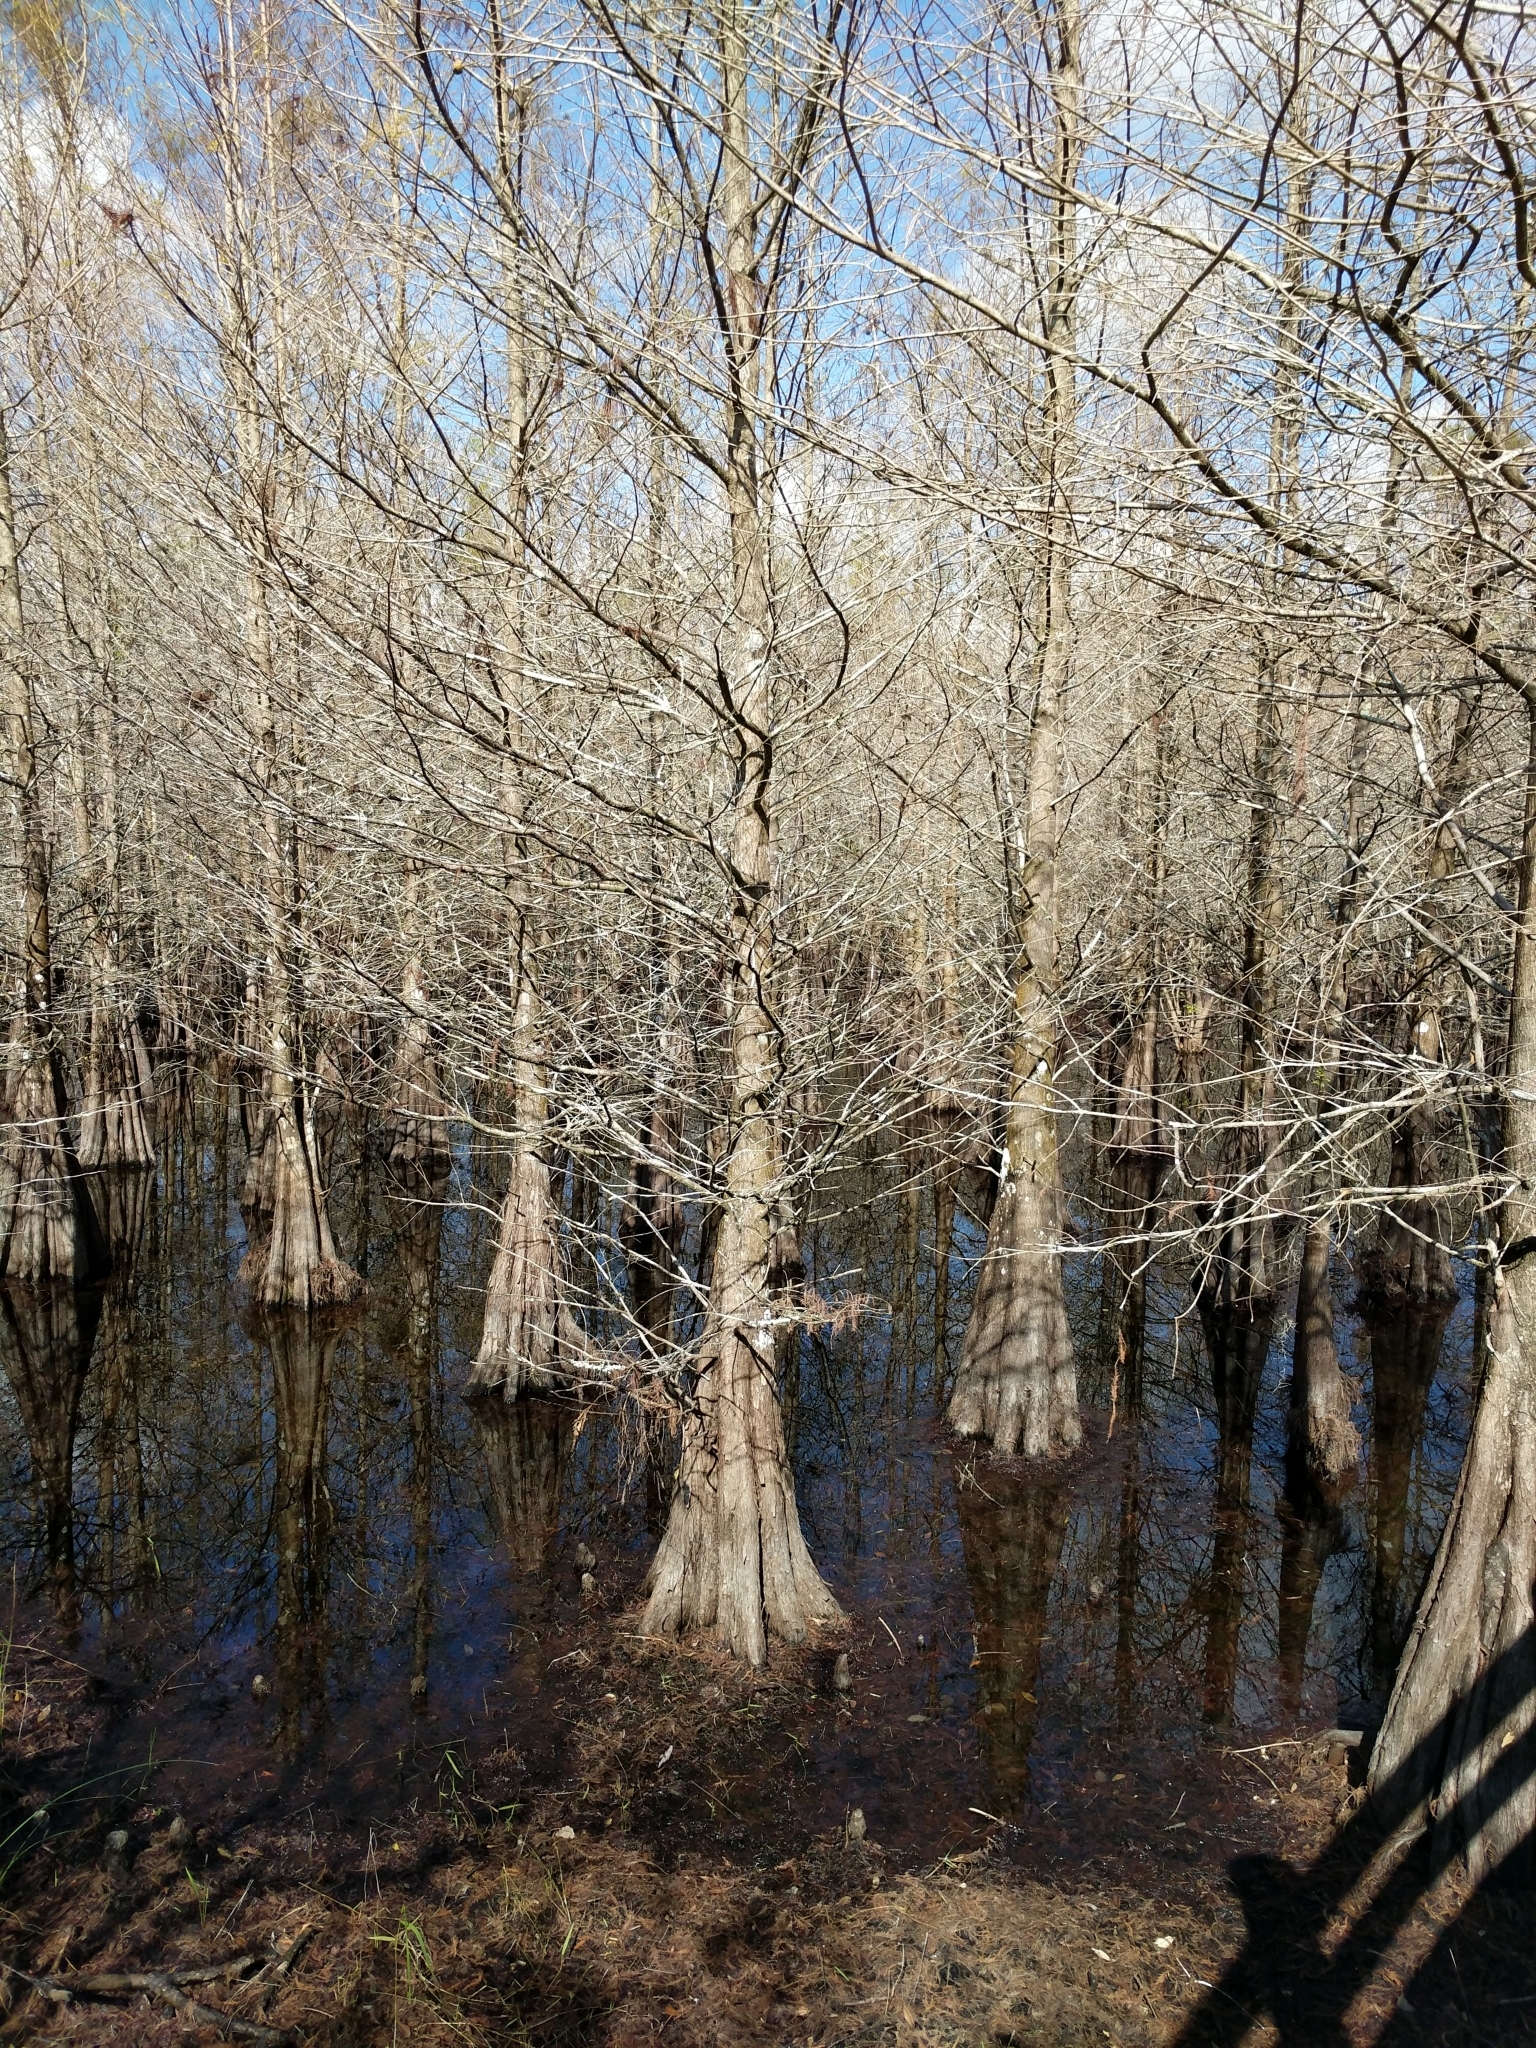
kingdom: Plantae
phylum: Tracheophyta
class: Pinopsida
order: Pinales
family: Cupressaceae
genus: Taxodium
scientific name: Taxodium distichum
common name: Bald cypress
